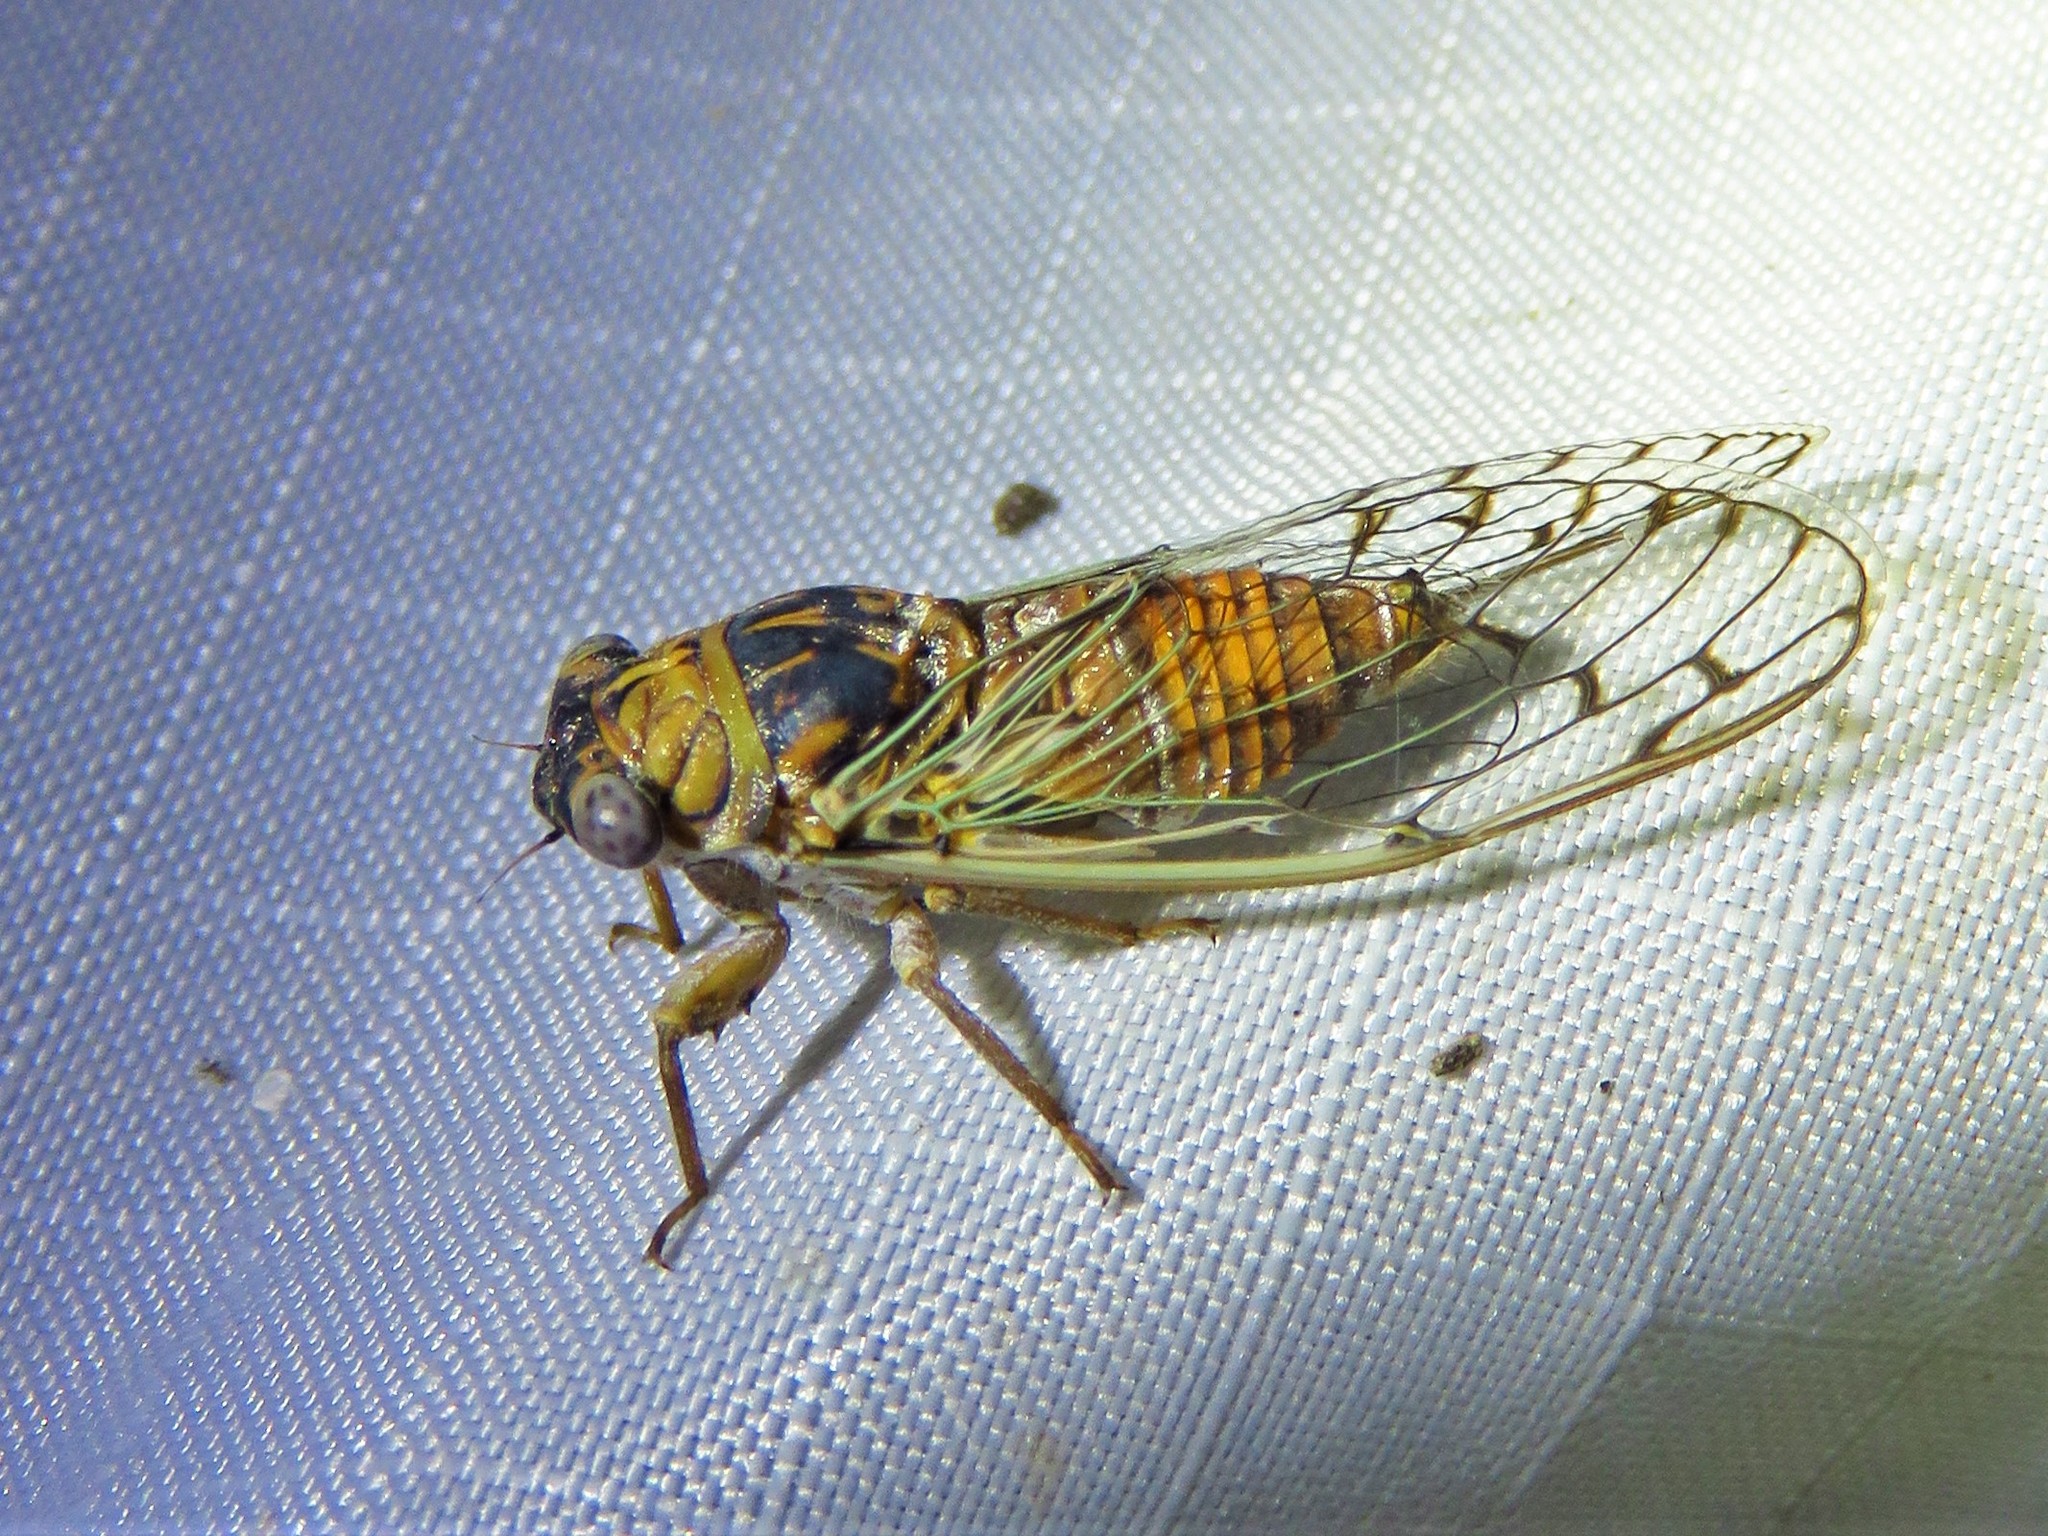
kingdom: Animalia
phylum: Arthropoda
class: Insecta
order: Hemiptera
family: Cicadidae
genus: Pacarina
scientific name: Pacarina puella
